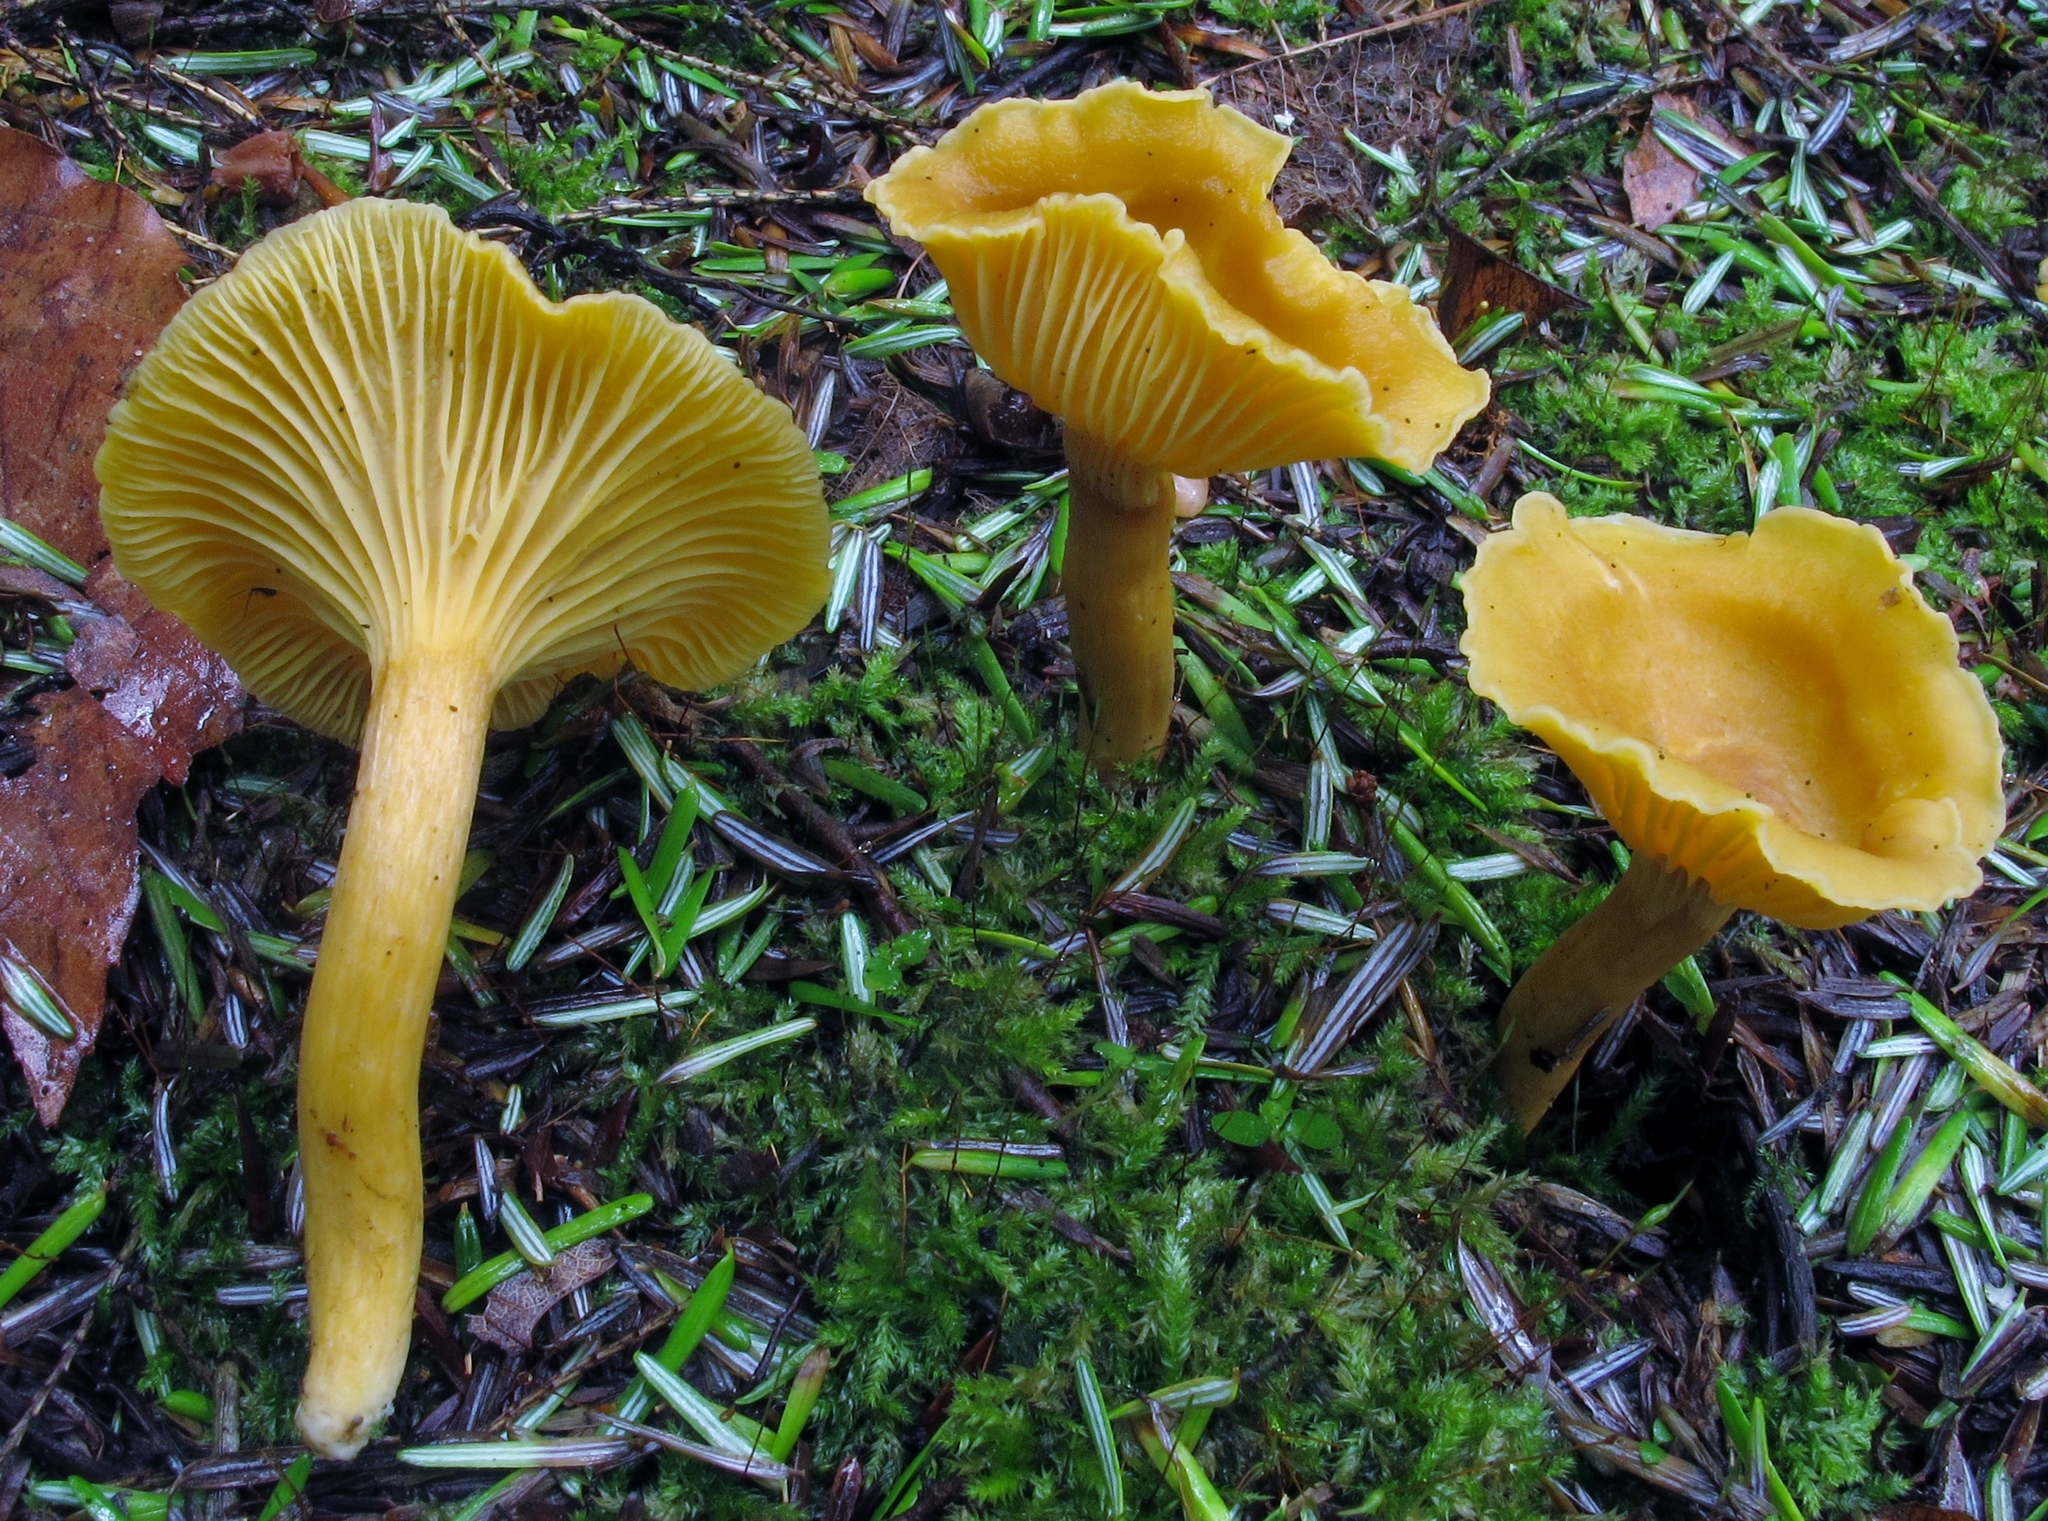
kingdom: Fungi
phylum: Basidiomycota
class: Agaricomycetes
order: Cantharellales
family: Hydnaceae
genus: Cantharellus
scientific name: Cantharellus appalachiensis
